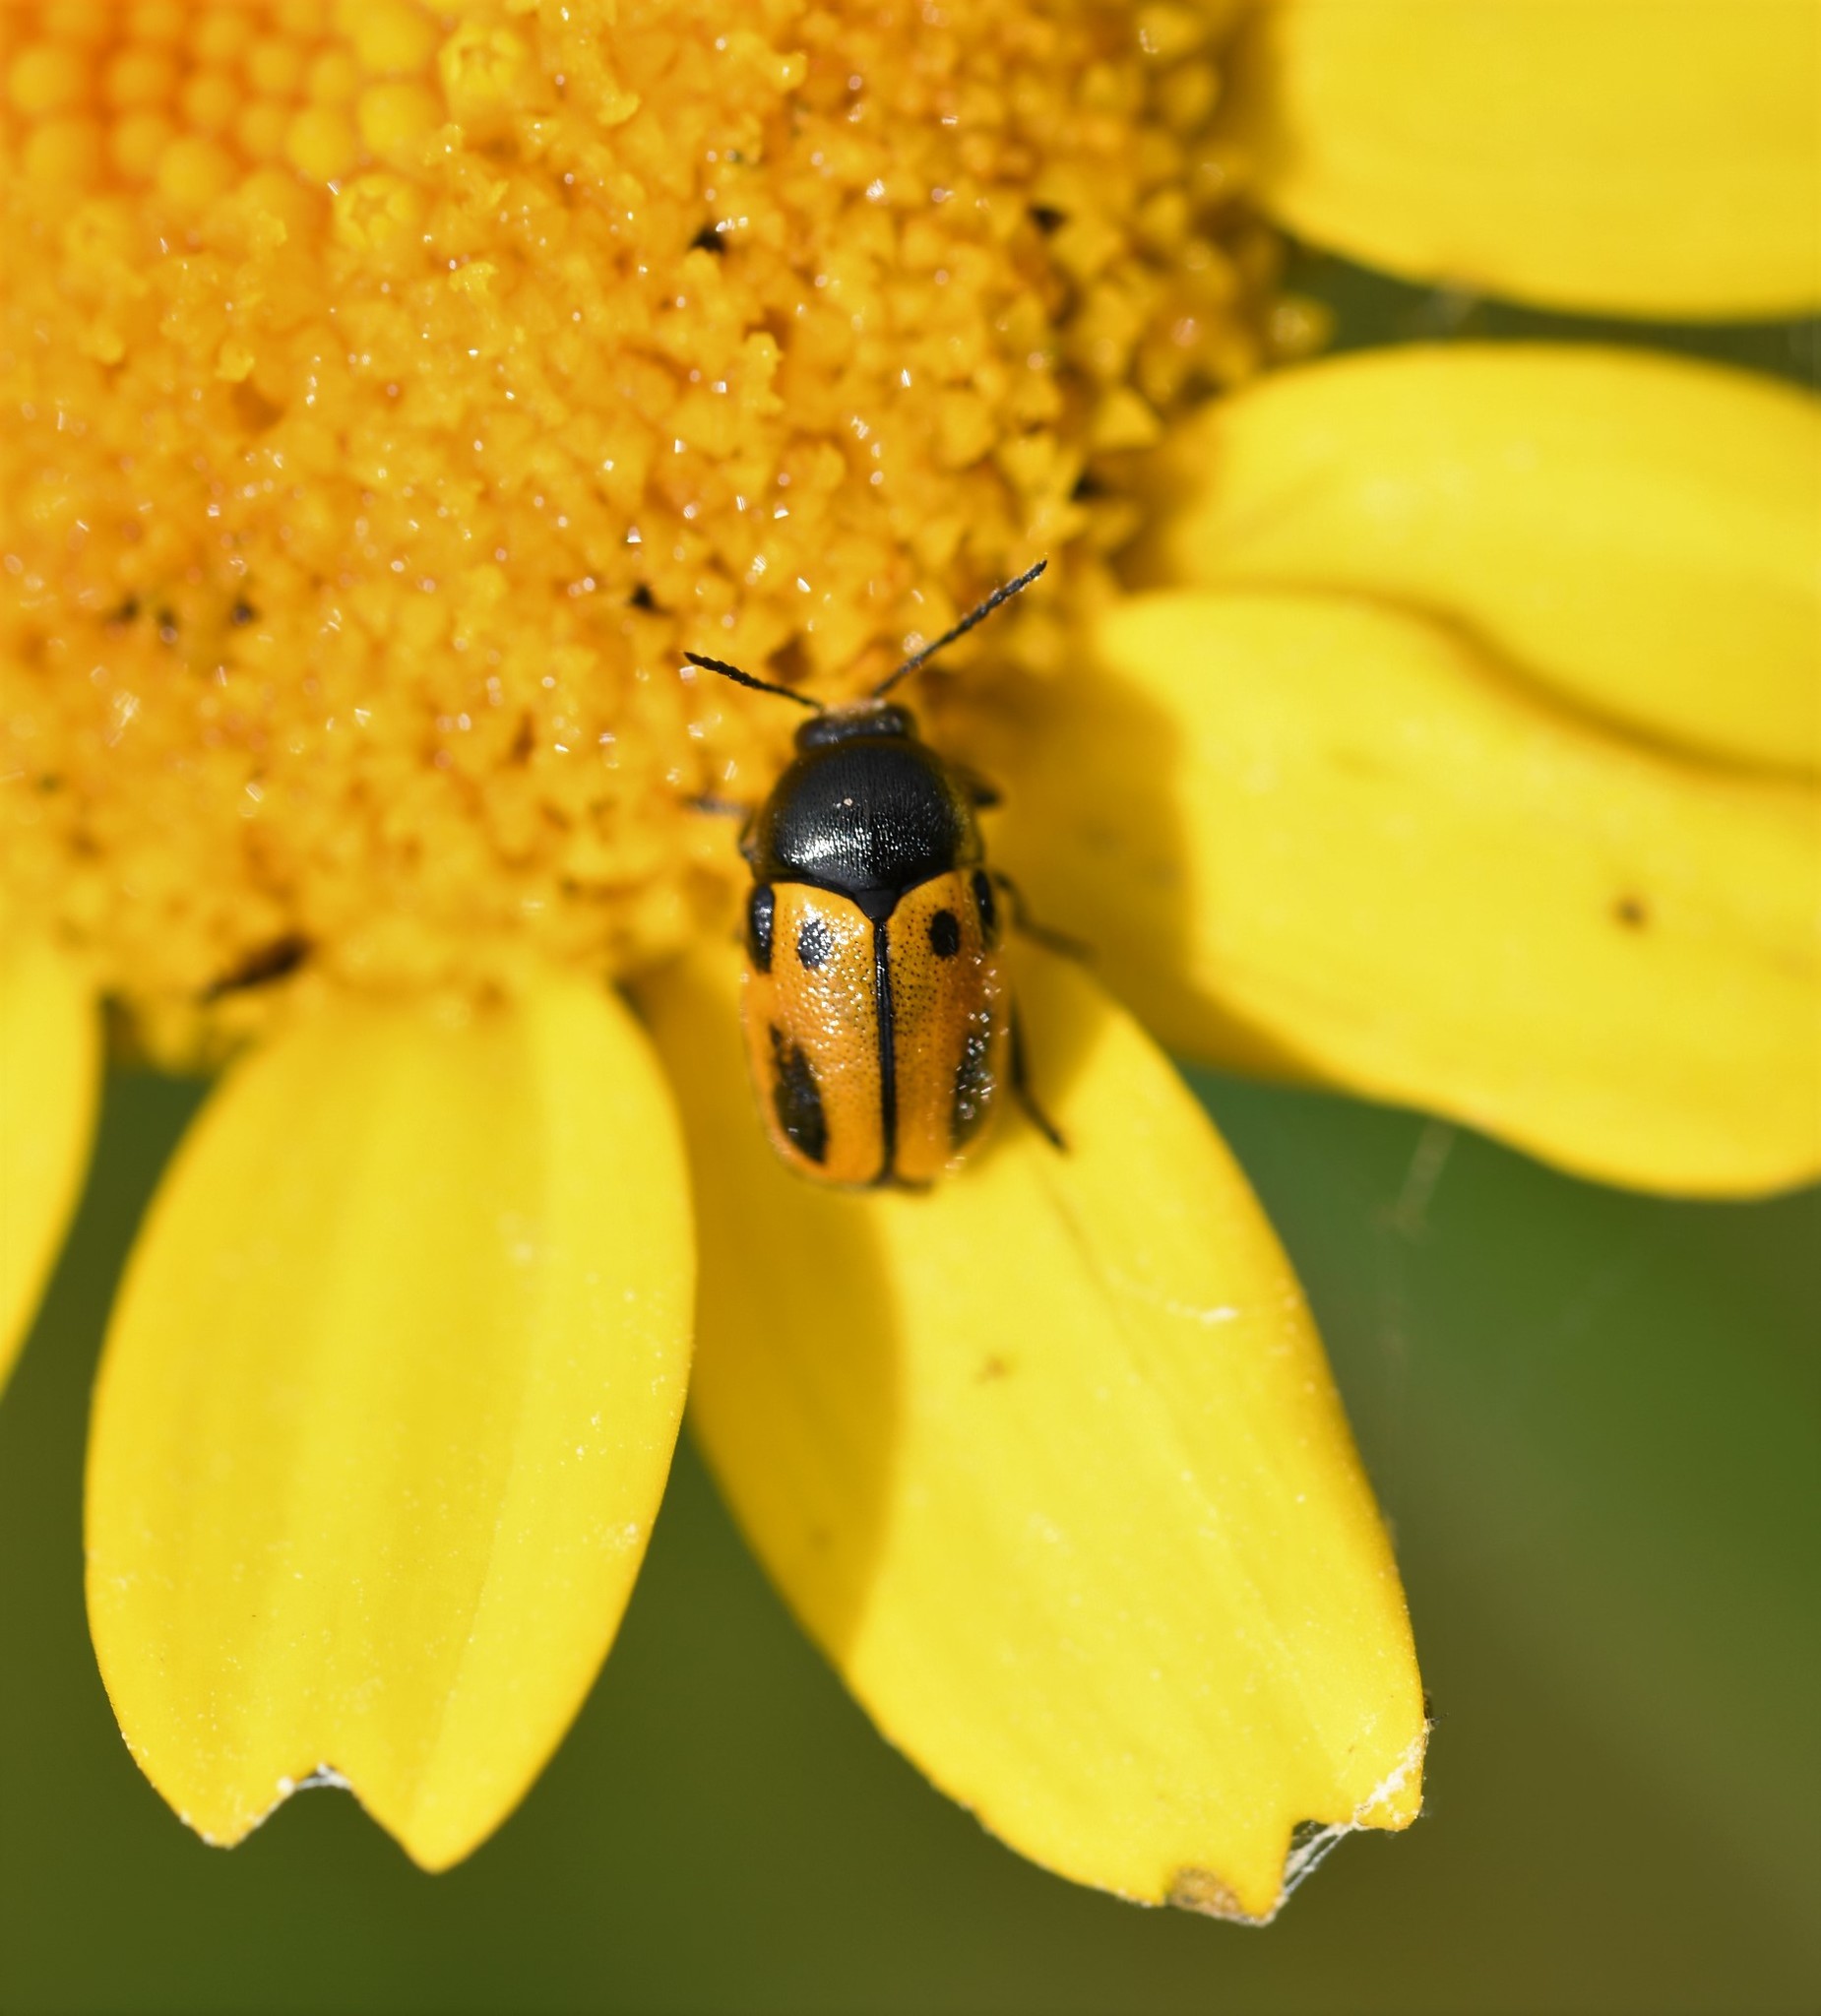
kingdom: Animalia
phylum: Arthropoda
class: Insecta
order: Coleoptera
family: Chrysomelidae
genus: Cryptocephalus
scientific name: Cryptocephalus rugicollis
